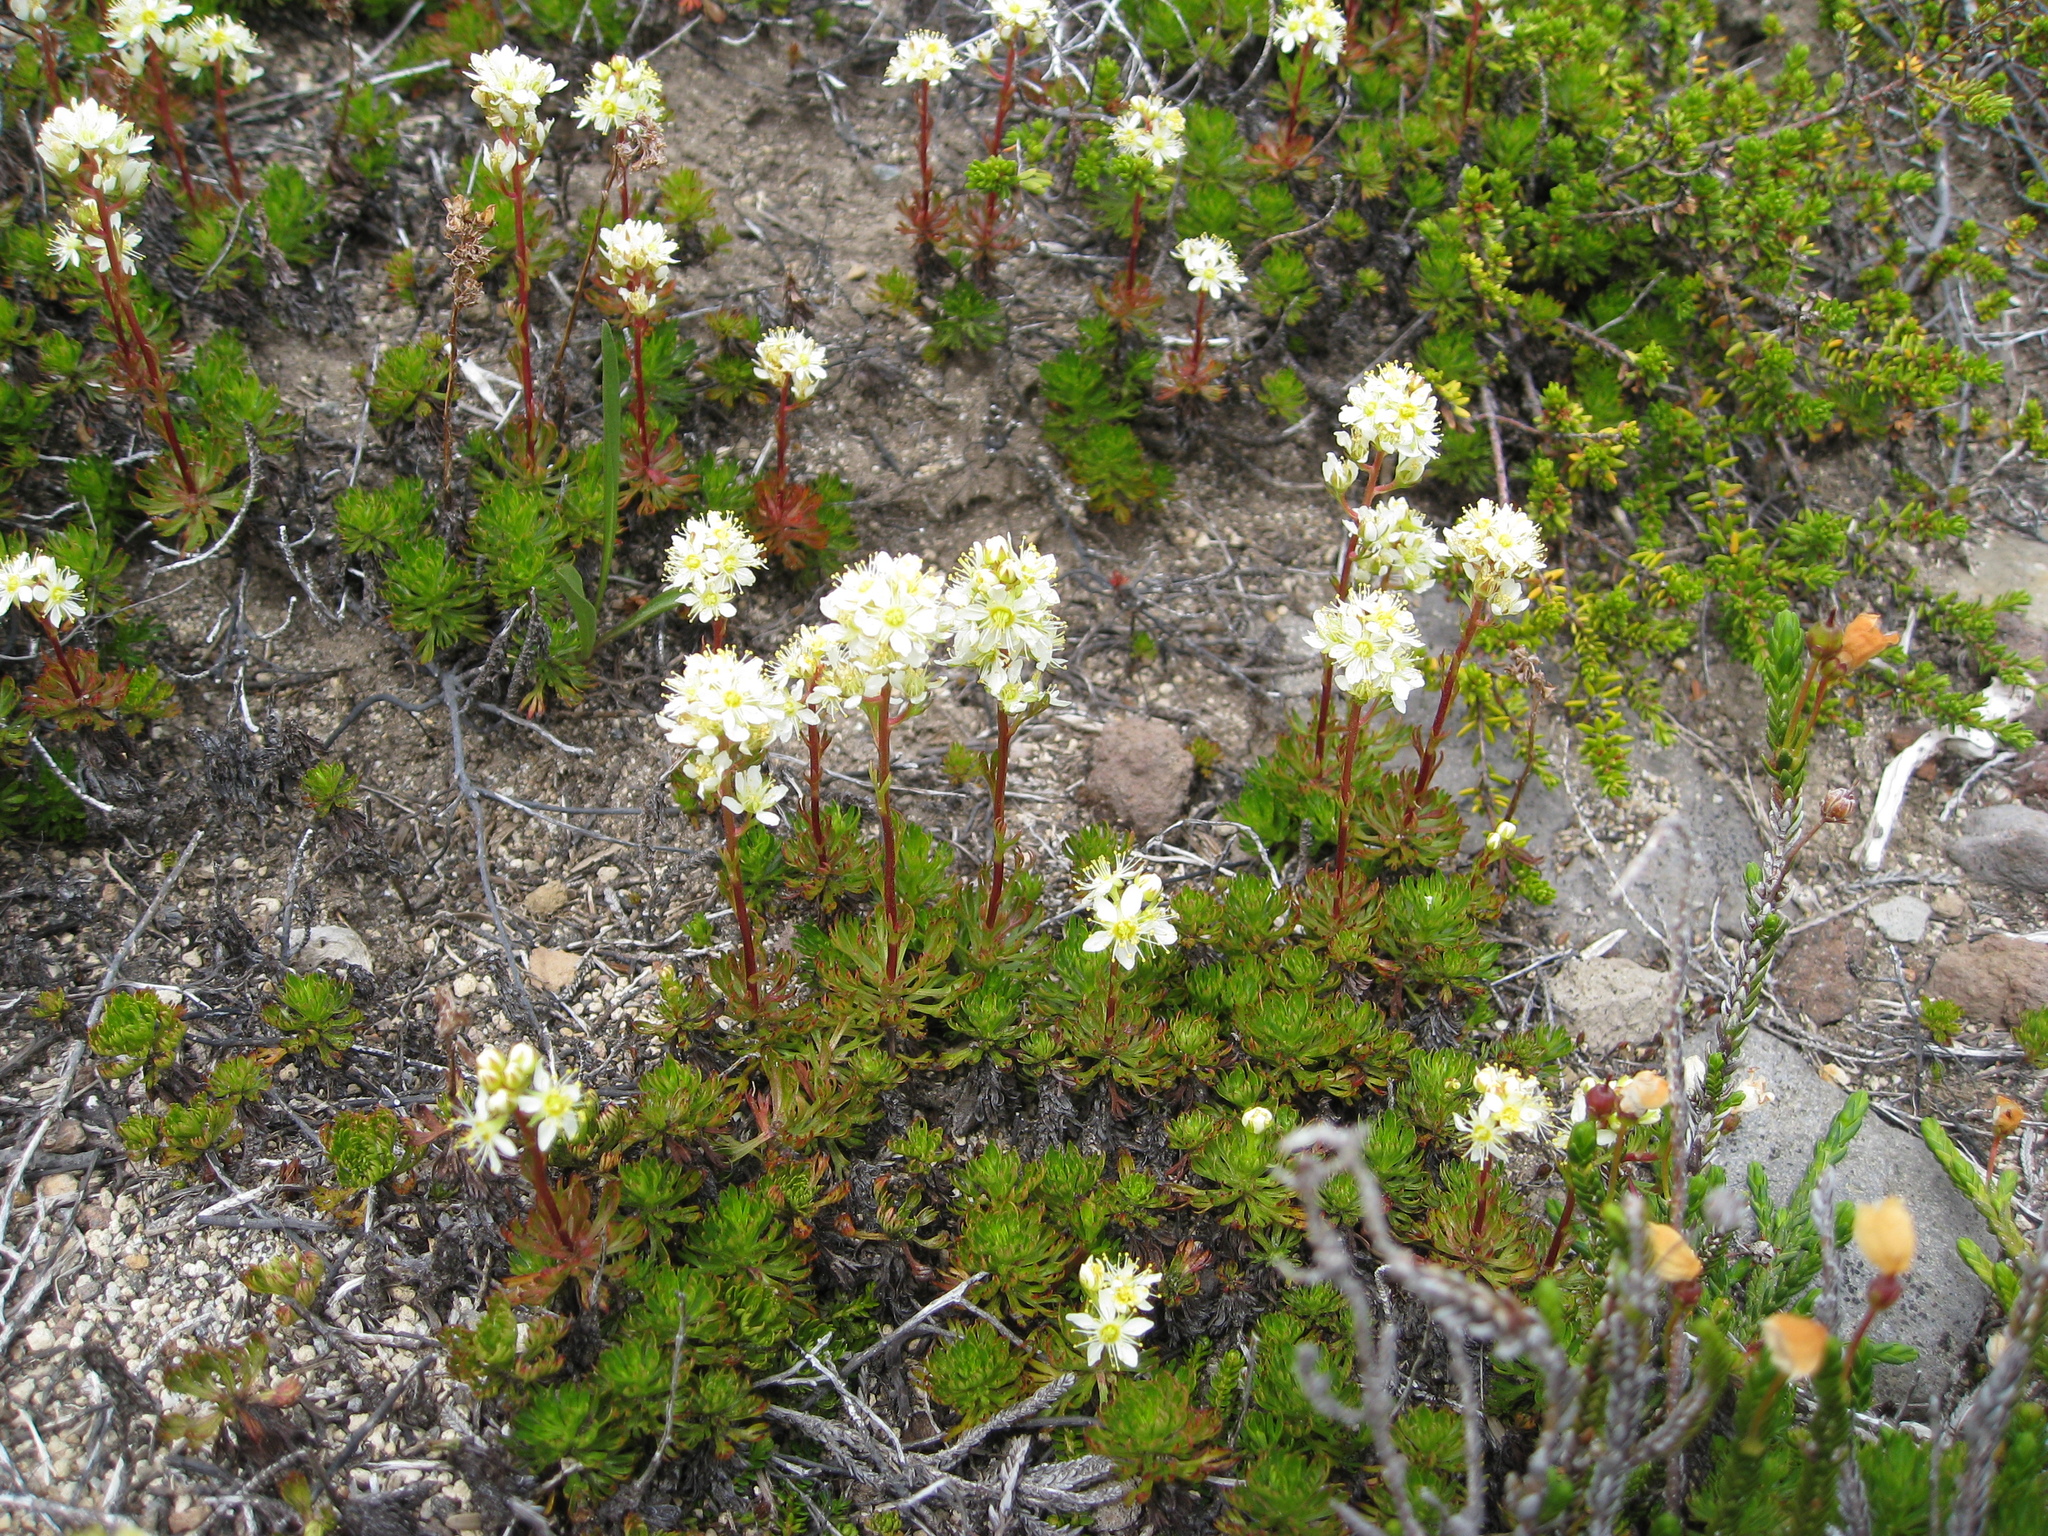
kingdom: Plantae
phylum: Tracheophyta
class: Magnoliopsida
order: Rosales
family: Rosaceae
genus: Luetkea
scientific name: Luetkea pectinata
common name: Partridgefoot
